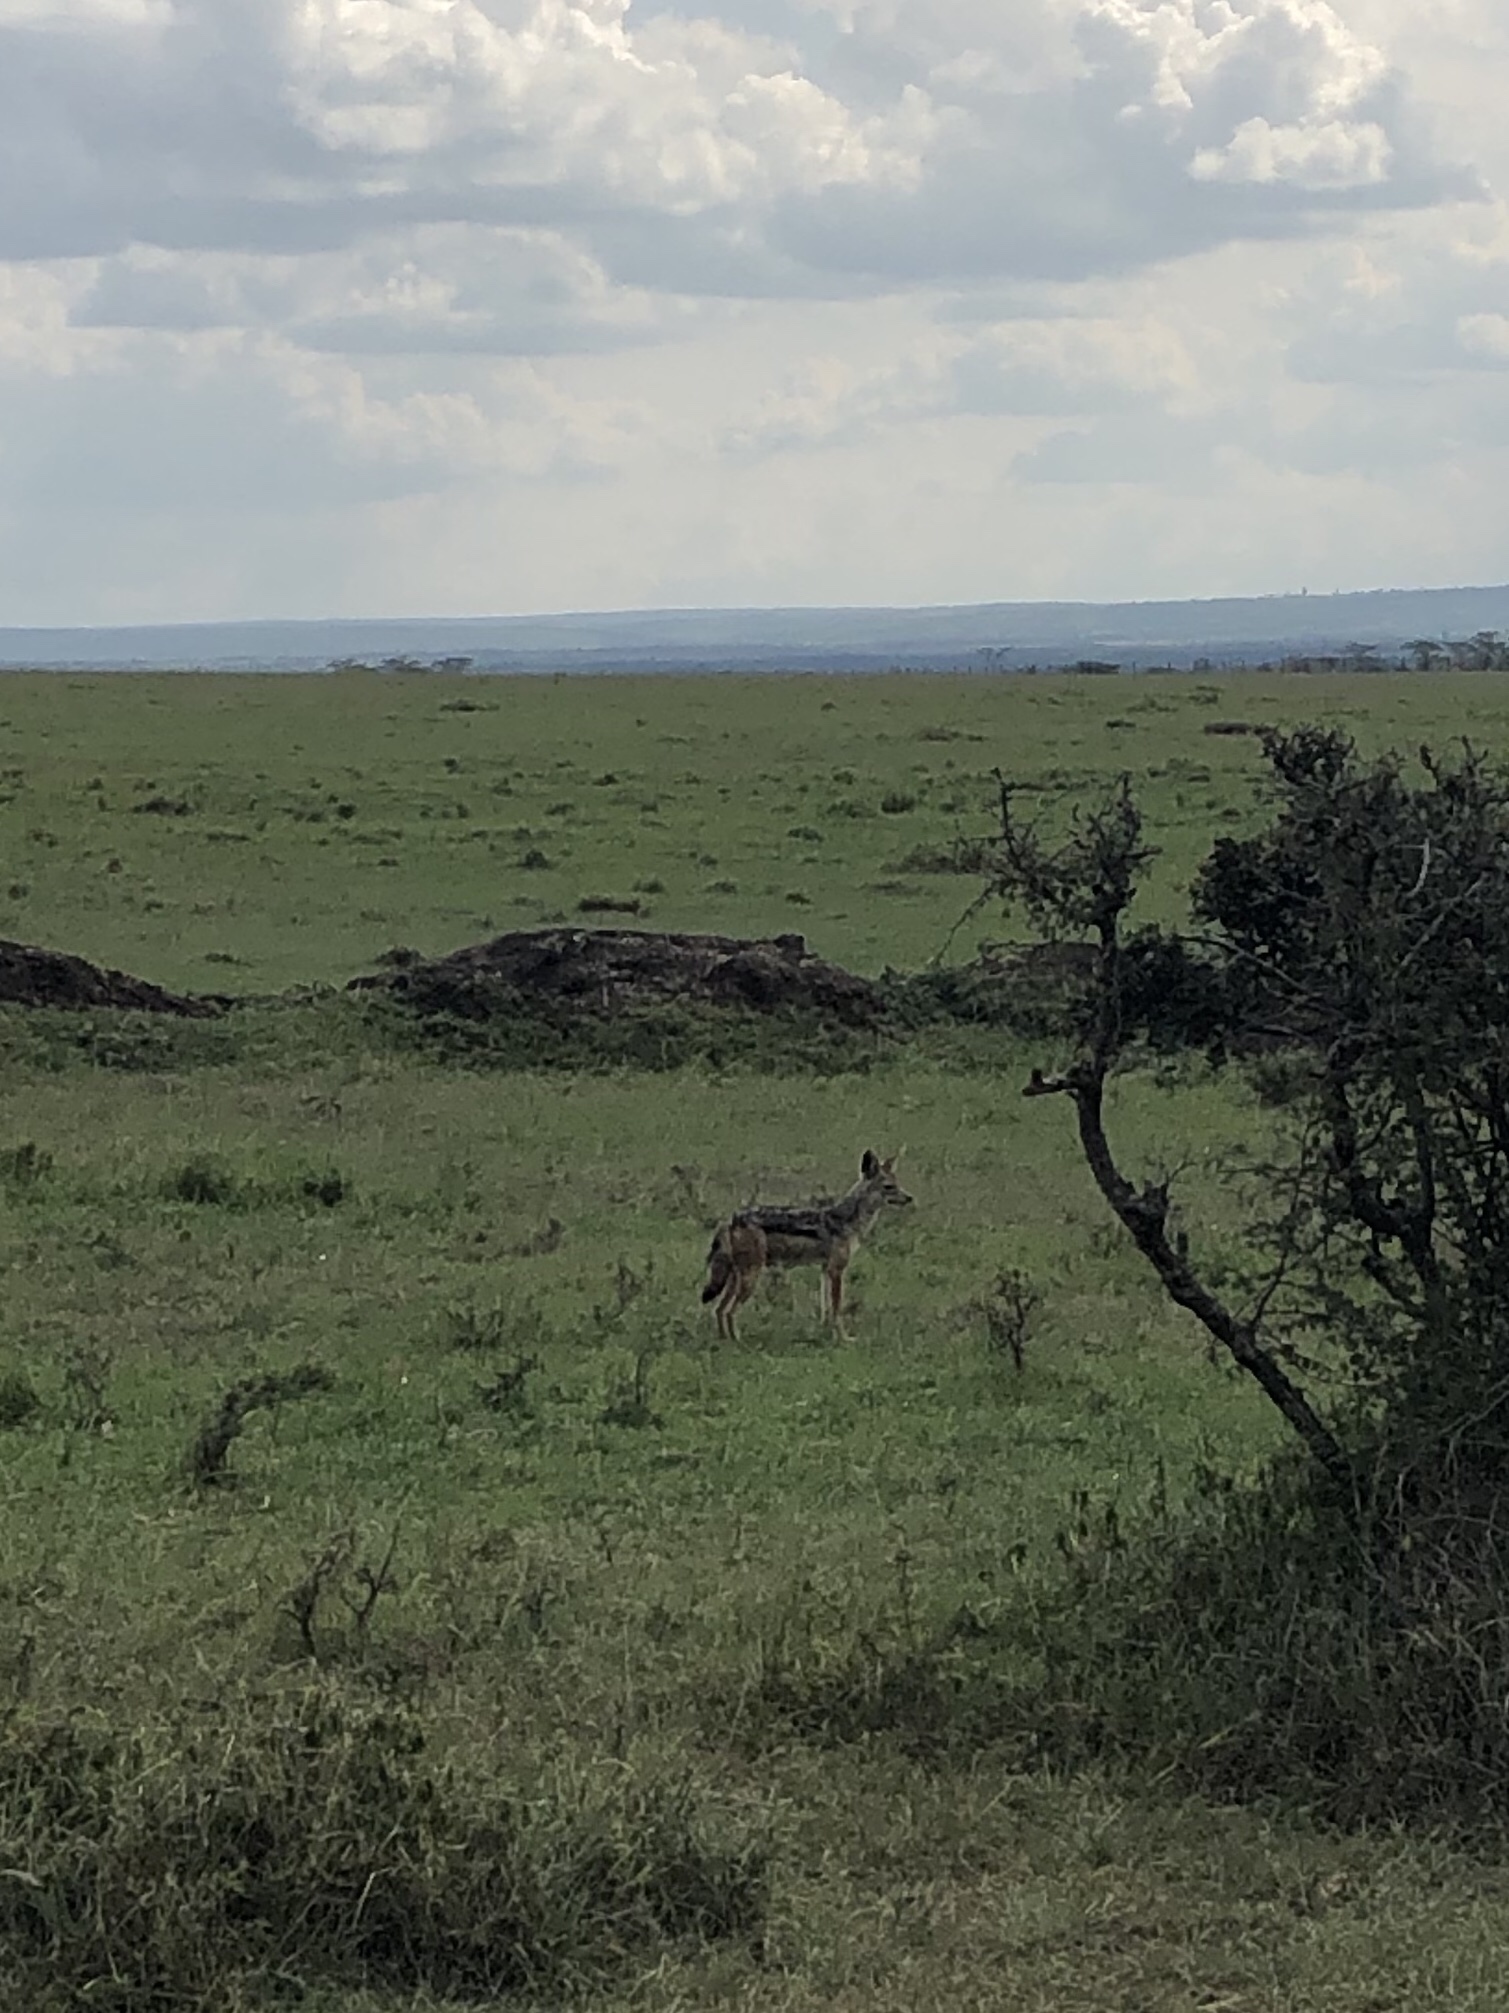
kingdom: Animalia
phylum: Chordata
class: Mammalia
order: Carnivora
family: Canidae
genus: Lupulella
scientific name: Lupulella
